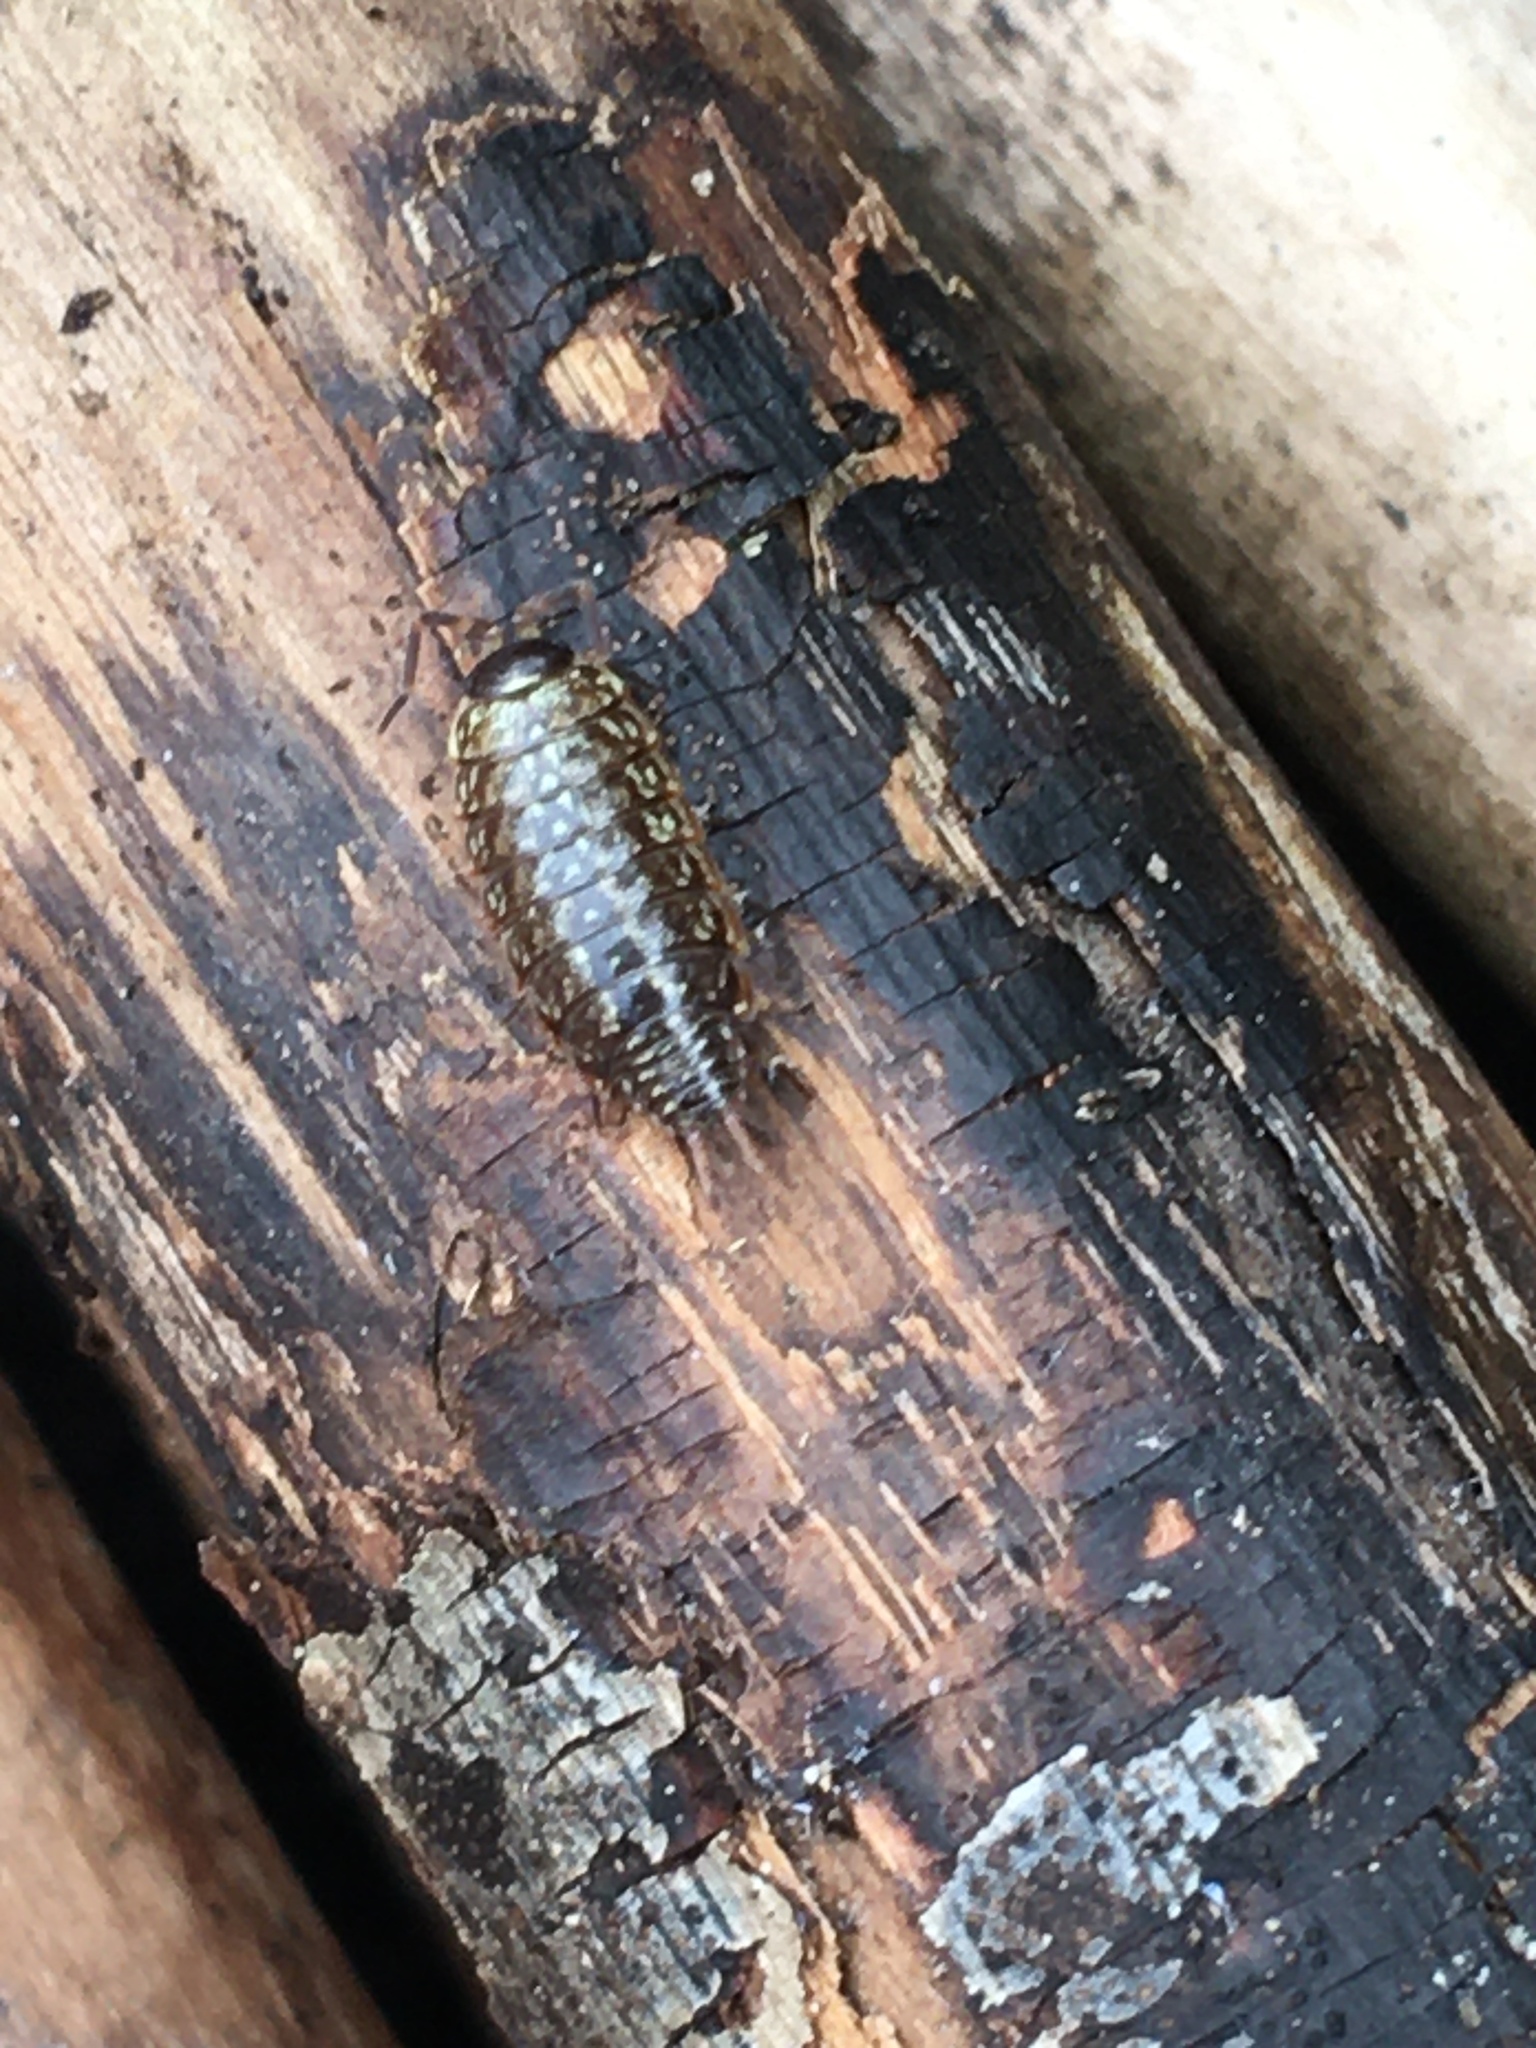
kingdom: Animalia
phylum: Arthropoda
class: Malacostraca
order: Isopoda
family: Philosciidae
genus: Philoscia
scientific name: Philoscia muscorum
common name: Common striped woodlouse
